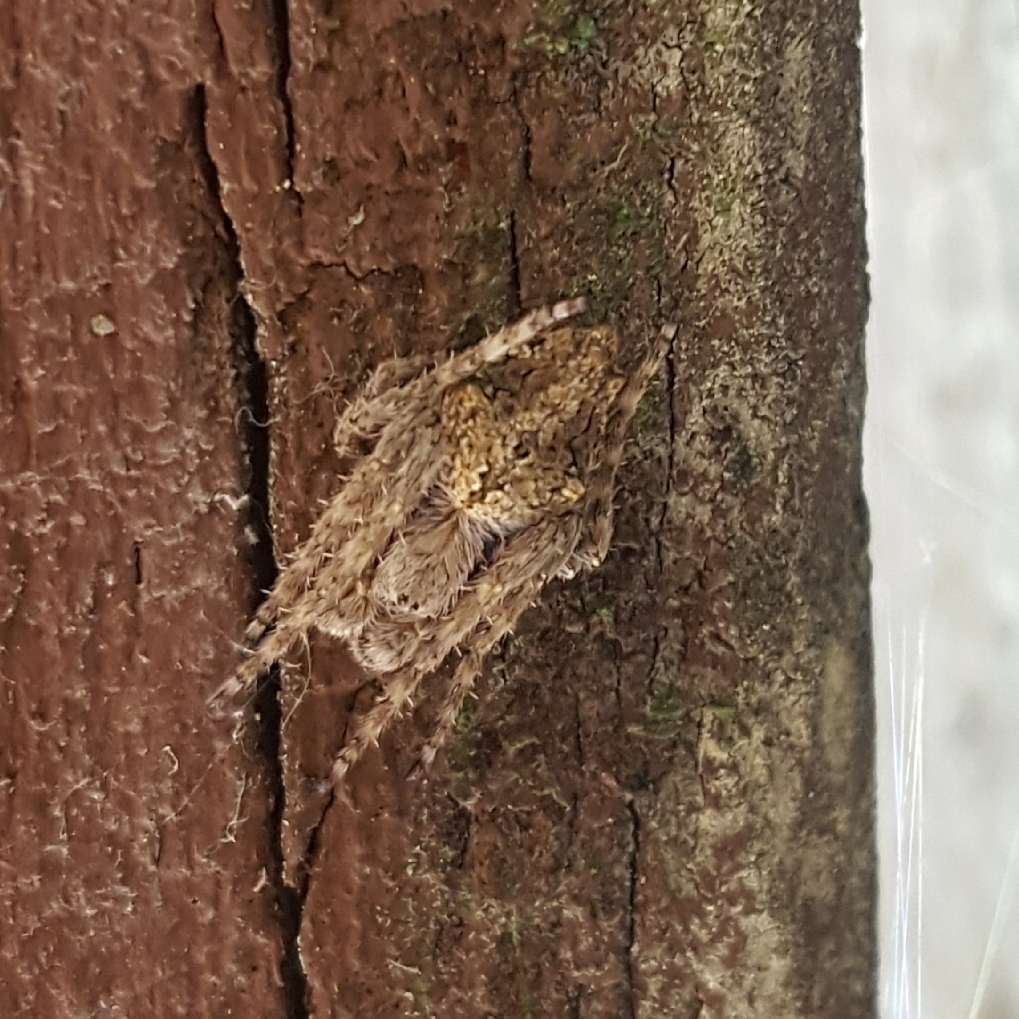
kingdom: Animalia
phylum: Arthropoda
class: Arachnida
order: Araneae
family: Araneidae
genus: Eriophora
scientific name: Eriophora pustulosa
